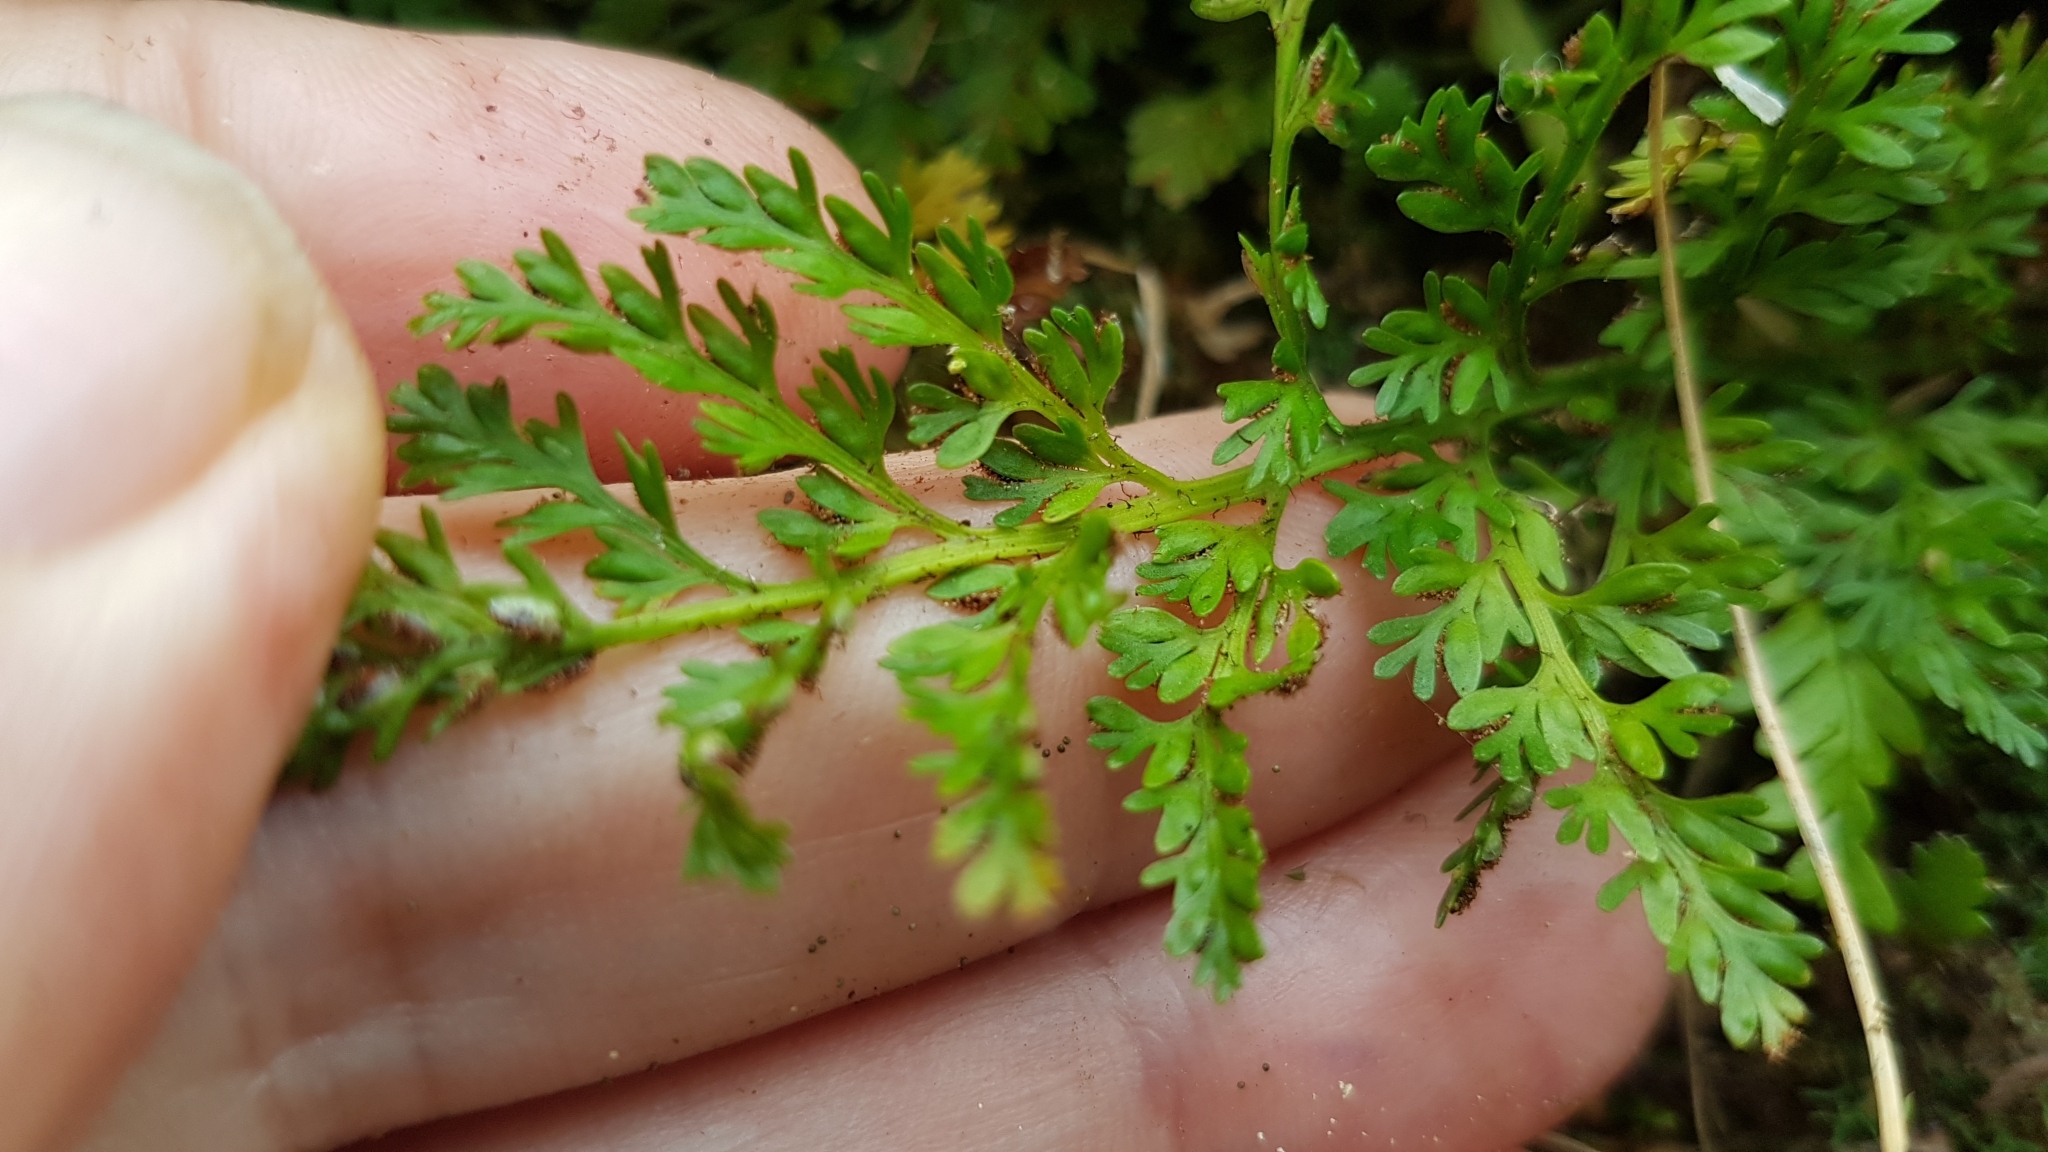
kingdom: Plantae
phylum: Tracheophyta
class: Polypodiopsida
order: Polypodiales
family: Aspleniaceae
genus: Asplenium
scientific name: Asplenium hookerianum
